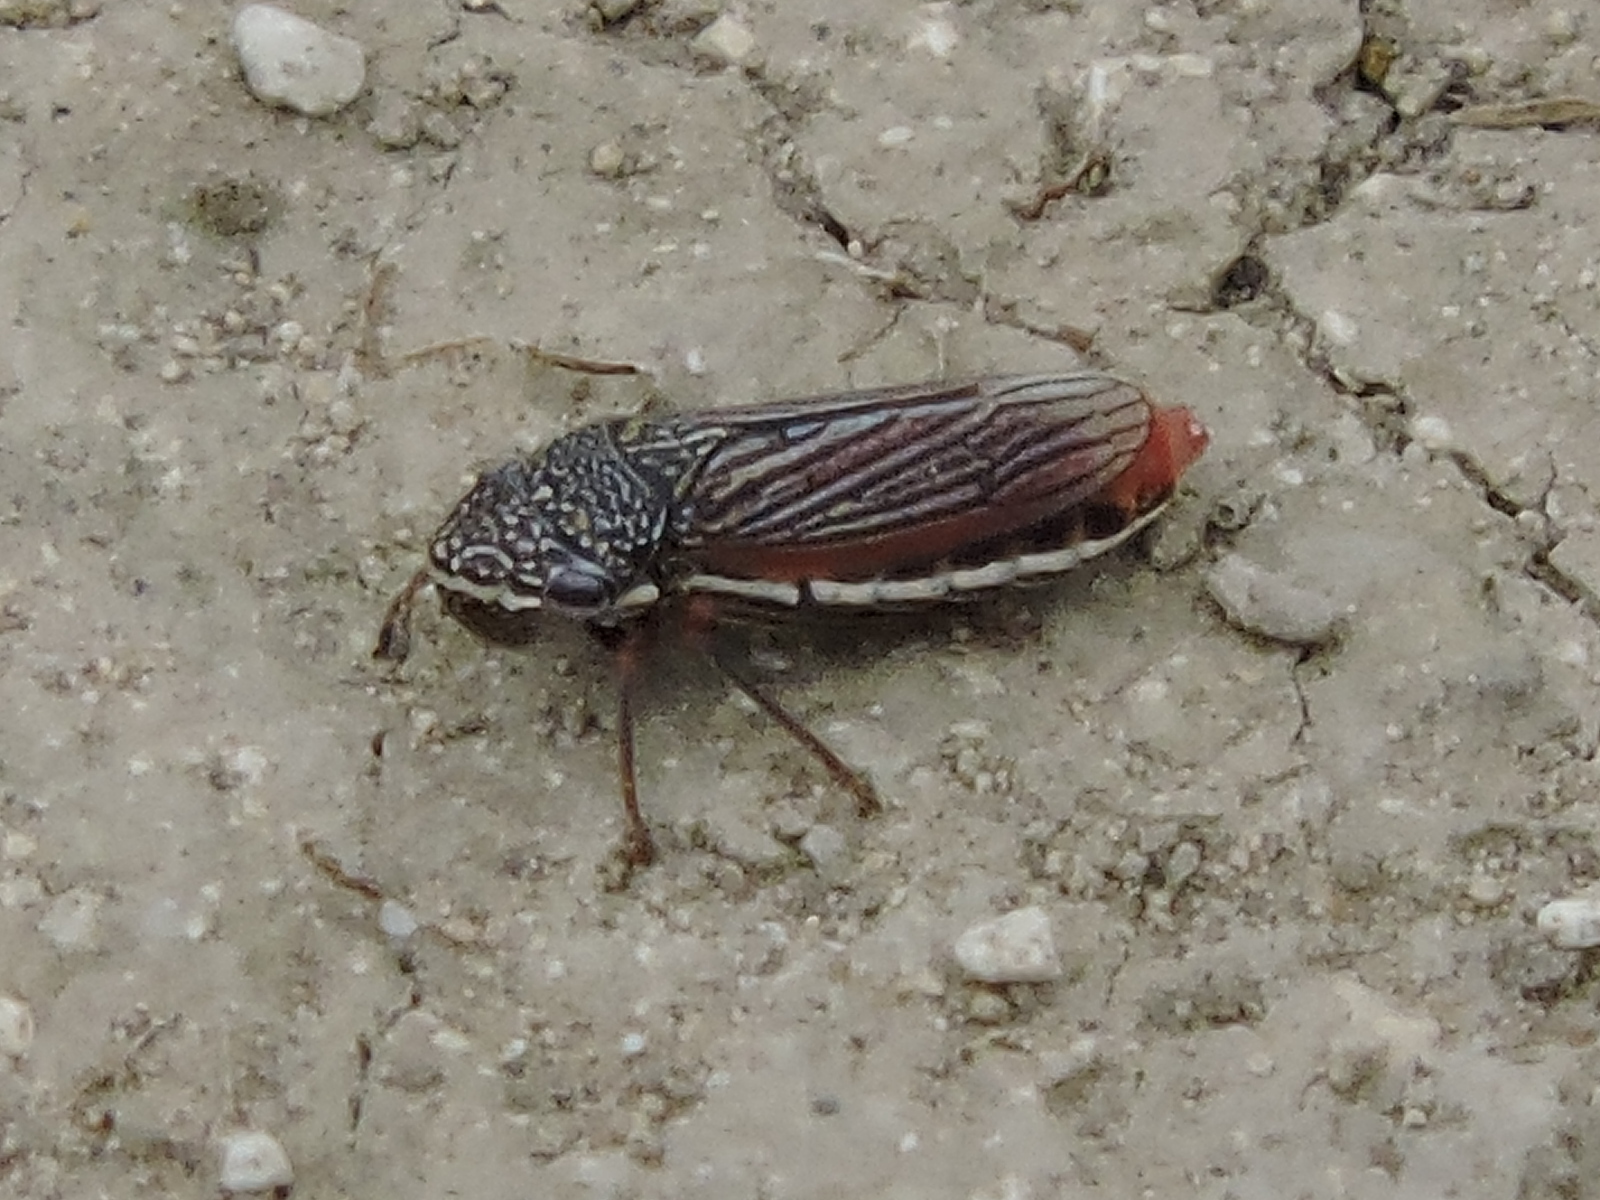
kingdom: Animalia
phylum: Arthropoda
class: Insecta
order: Hemiptera
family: Cicadellidae
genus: Cuerna
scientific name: Cuerna costalis
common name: Lateral-lined sharpshooter
